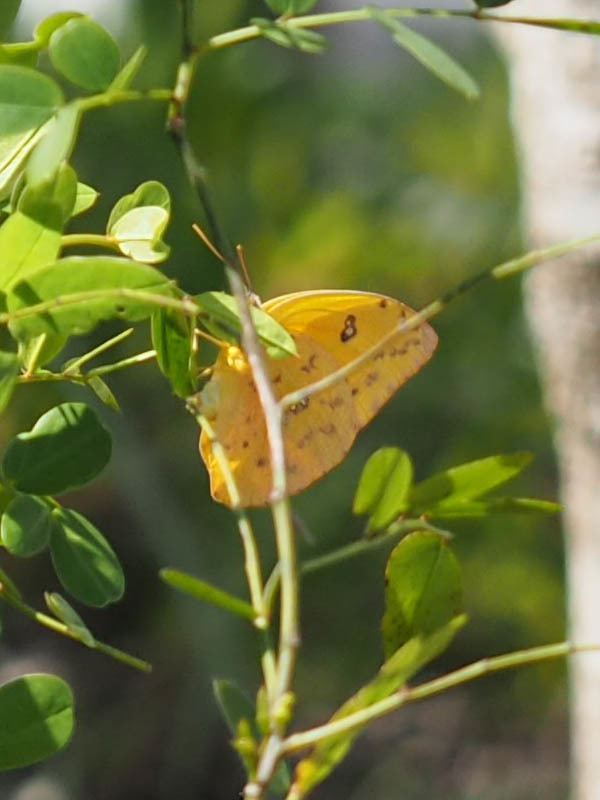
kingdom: Animalia
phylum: Arthropoda
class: Insecta
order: Lepidoptera
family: Pieridae
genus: Phoebis
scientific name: Phoebis philea
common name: Orange-barred giant sulphur
